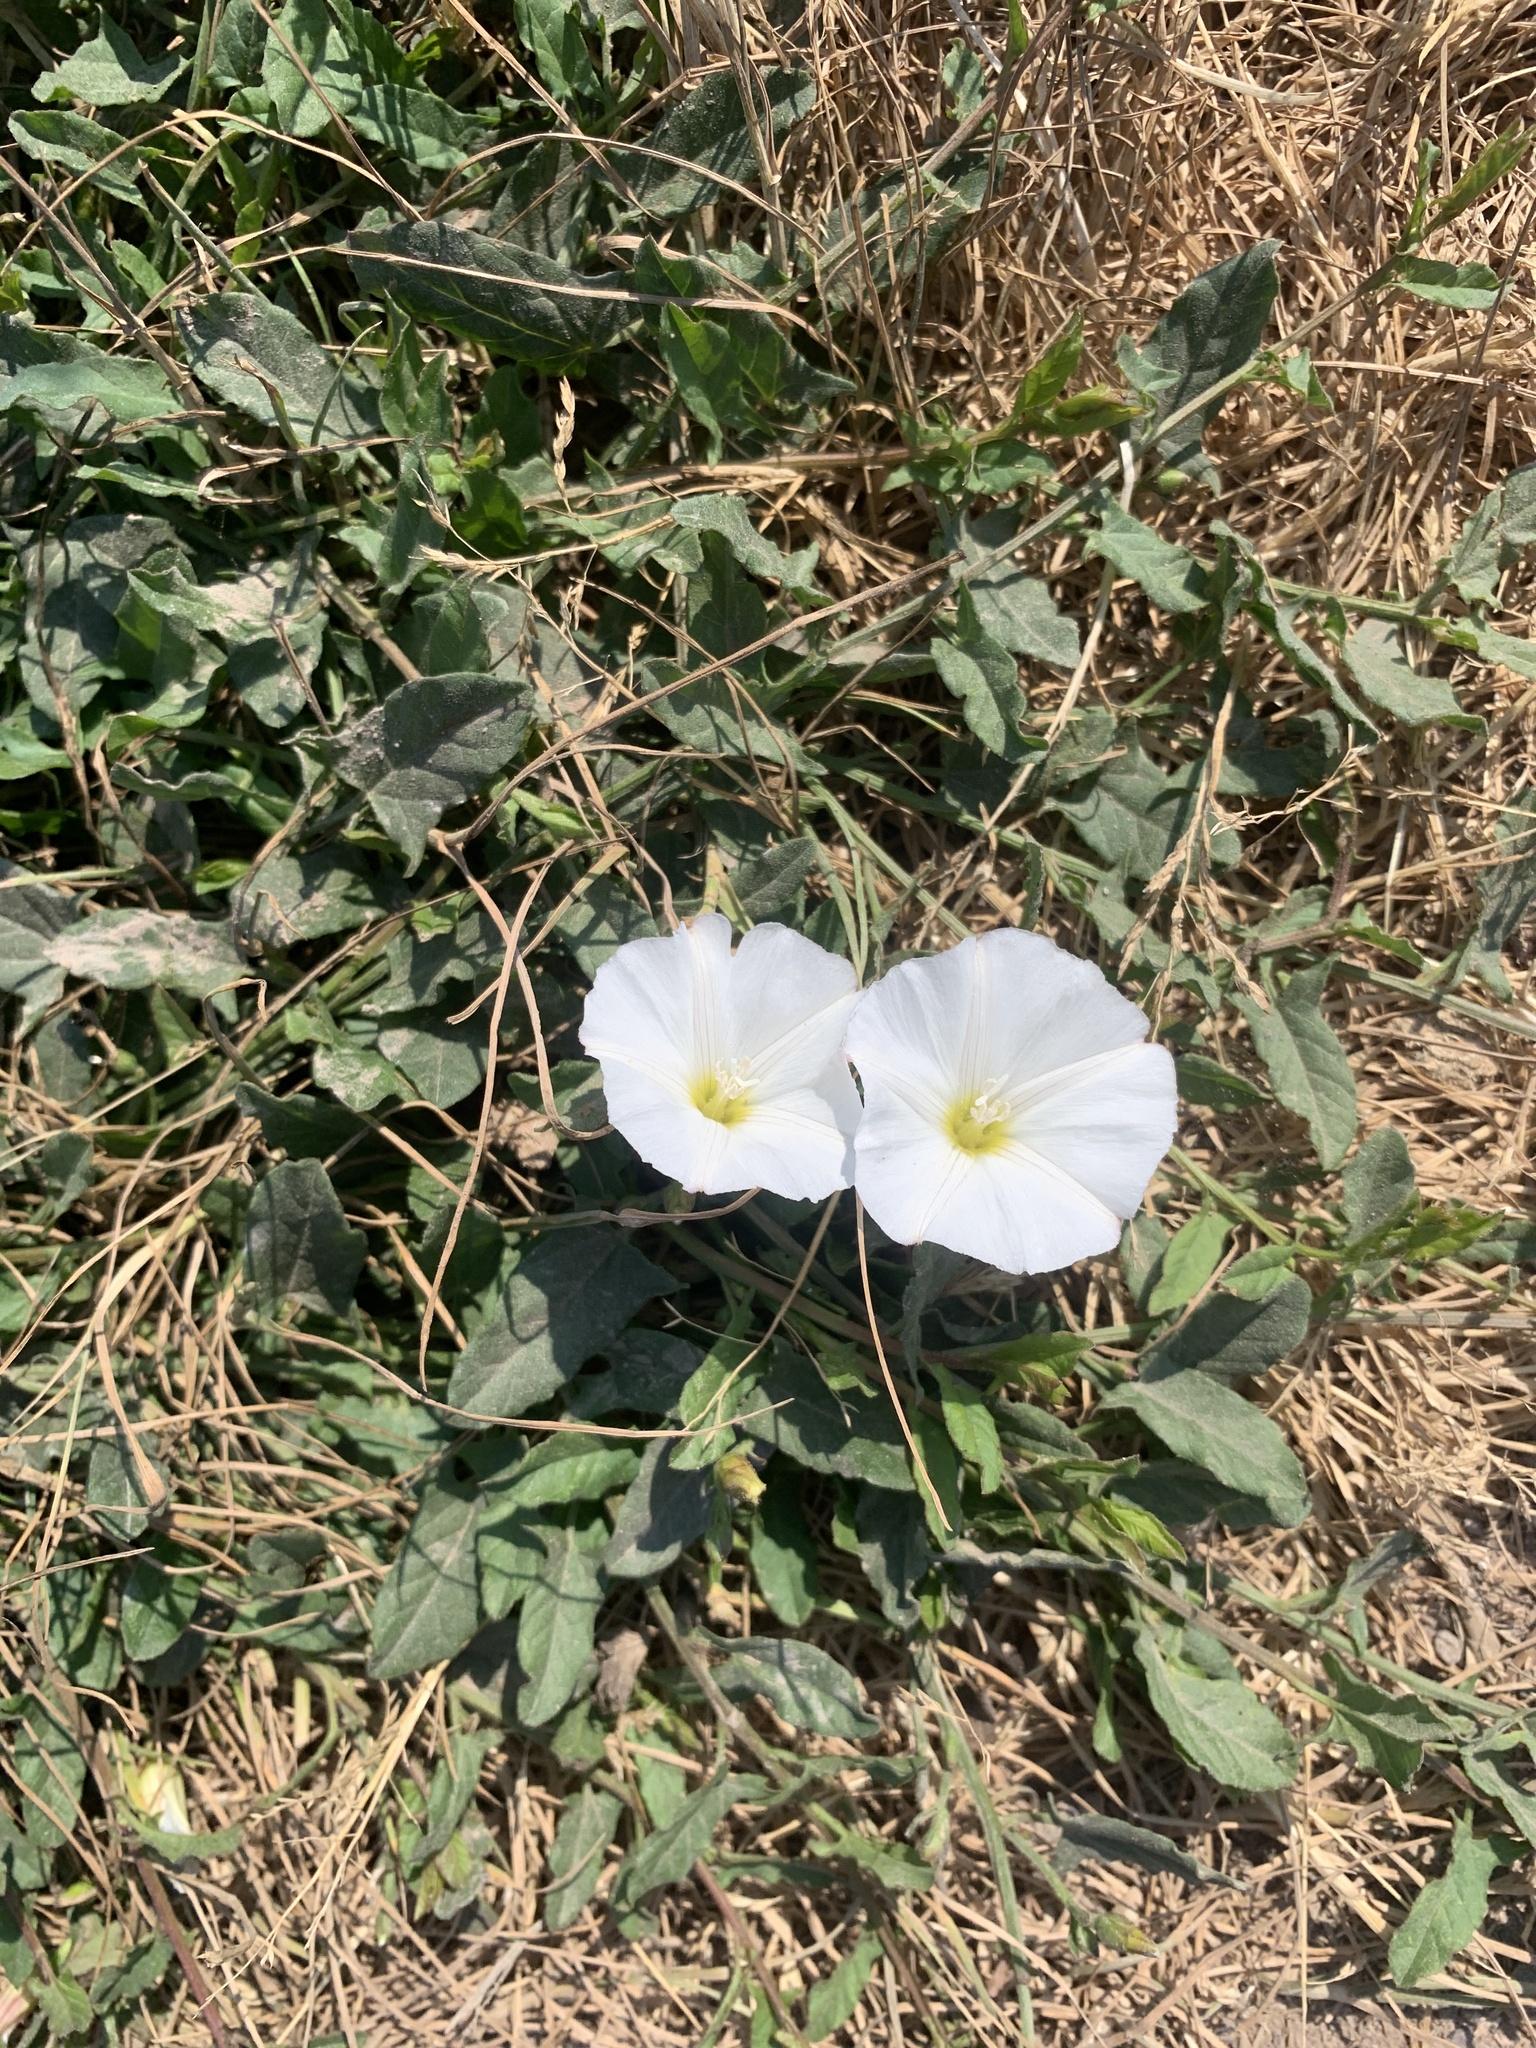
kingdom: Plantae
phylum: Tracheophyta
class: Magnoliopsida
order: Solanales
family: Convolvulaceae
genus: Convolvulus
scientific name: Convolvulus arvensis
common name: Field bindweed
